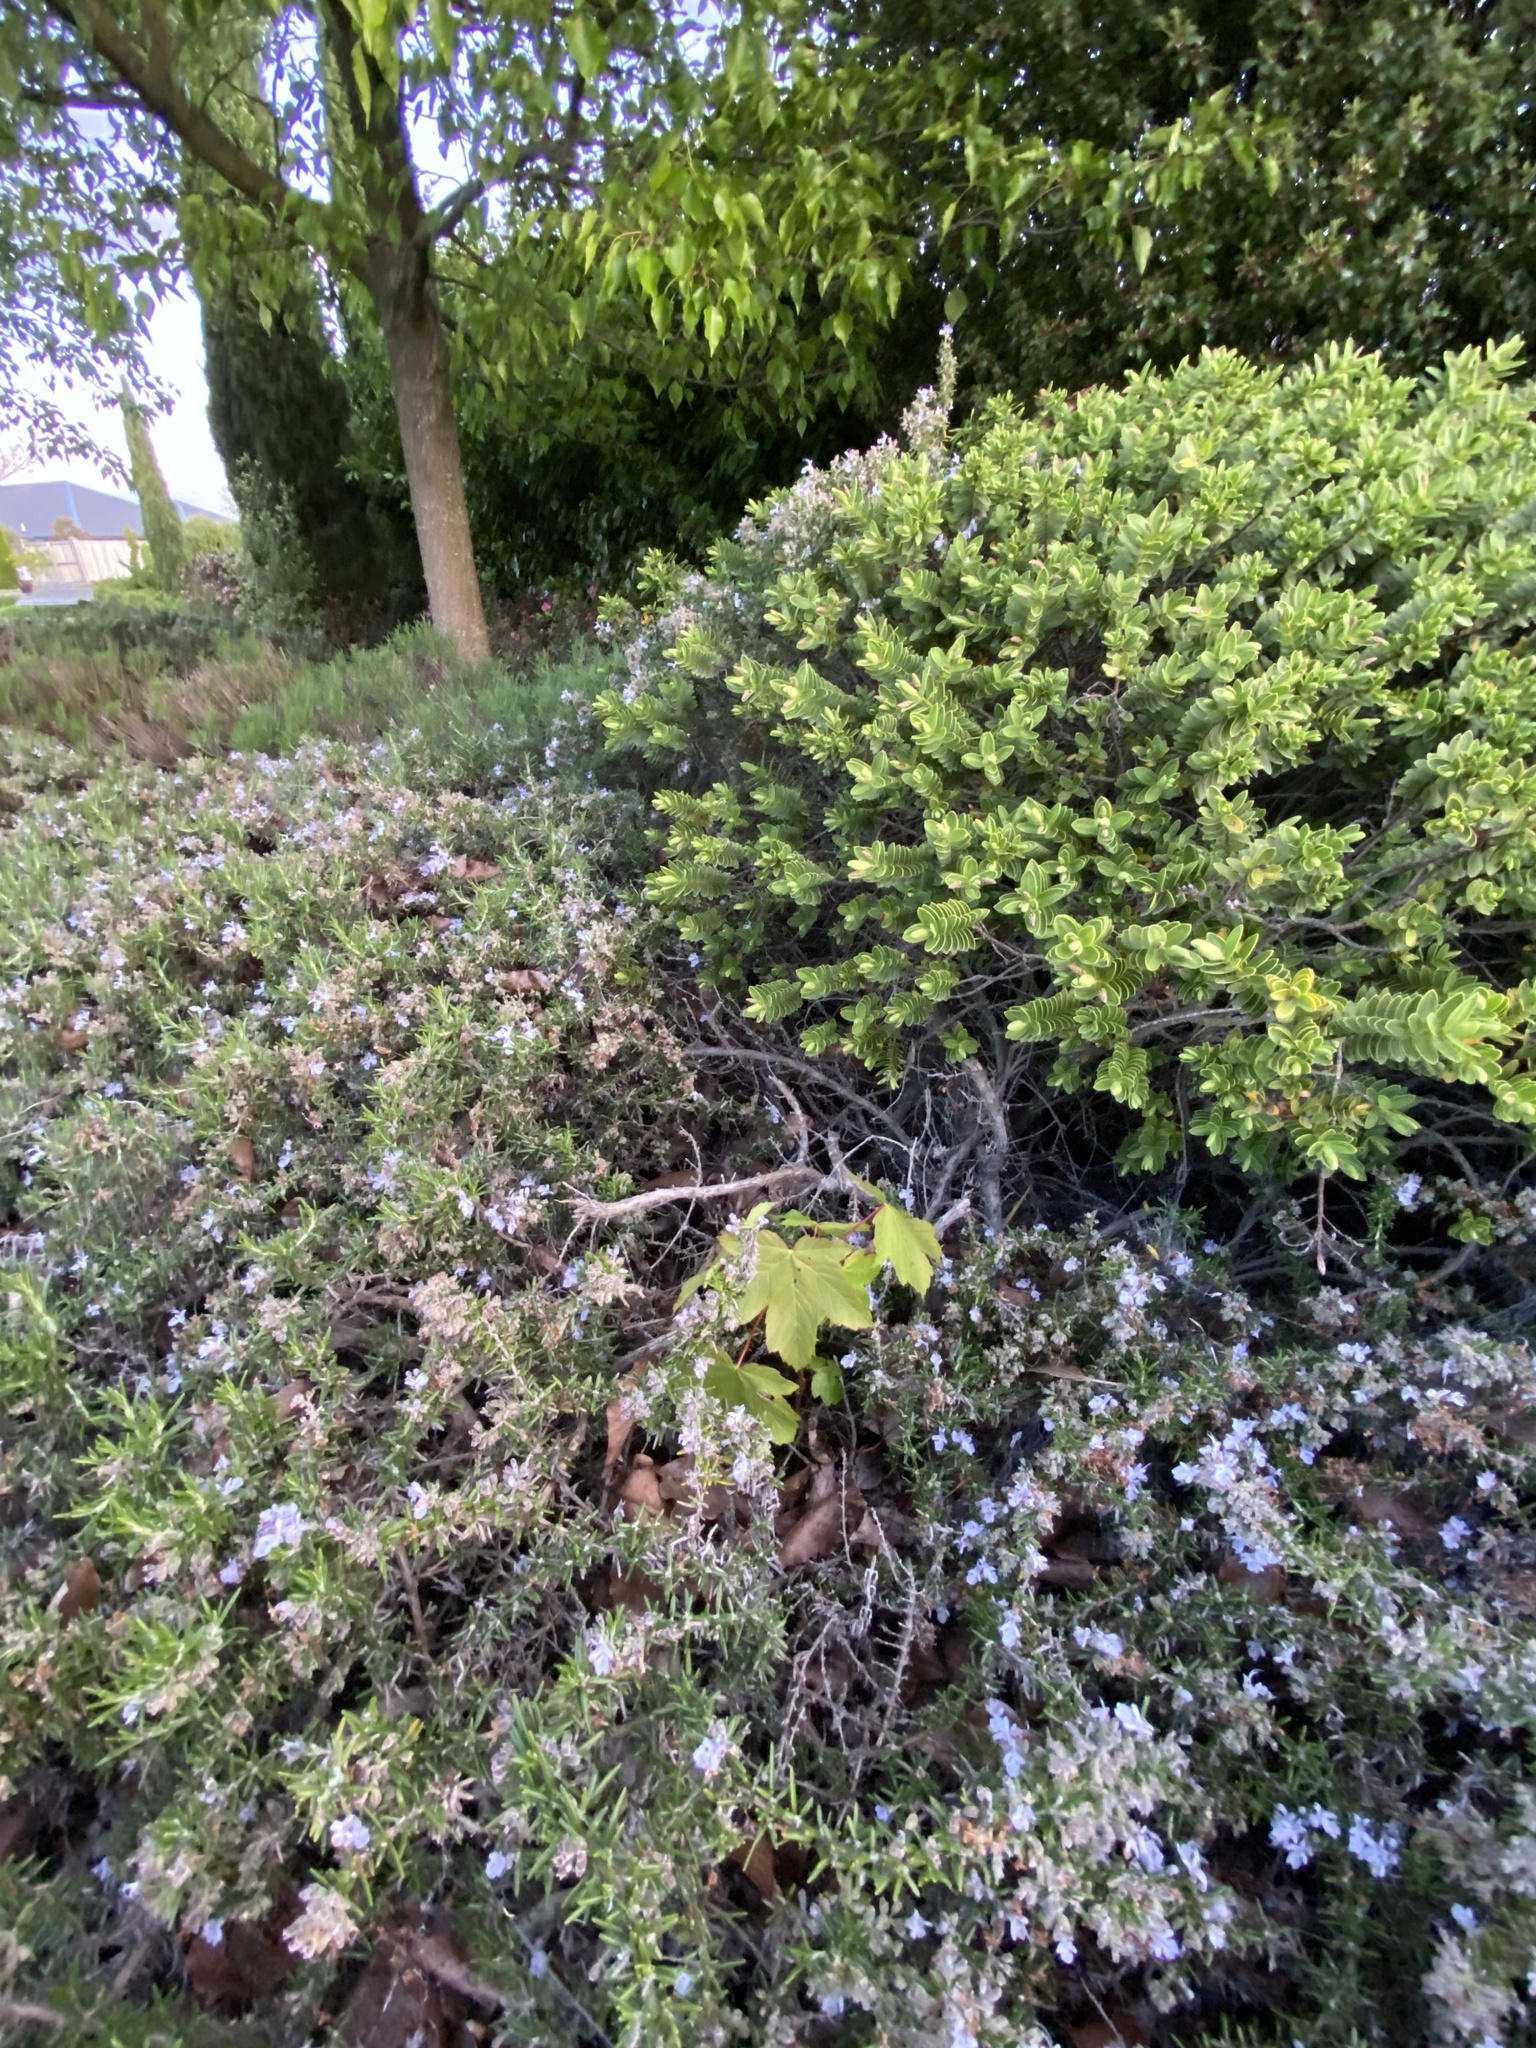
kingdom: Plantae
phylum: Tracheophyta
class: Magnoliopsida
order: Sapindales
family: Sapindaceae
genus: Acer
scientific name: Acer pseudoplatanus
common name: Sycamore
